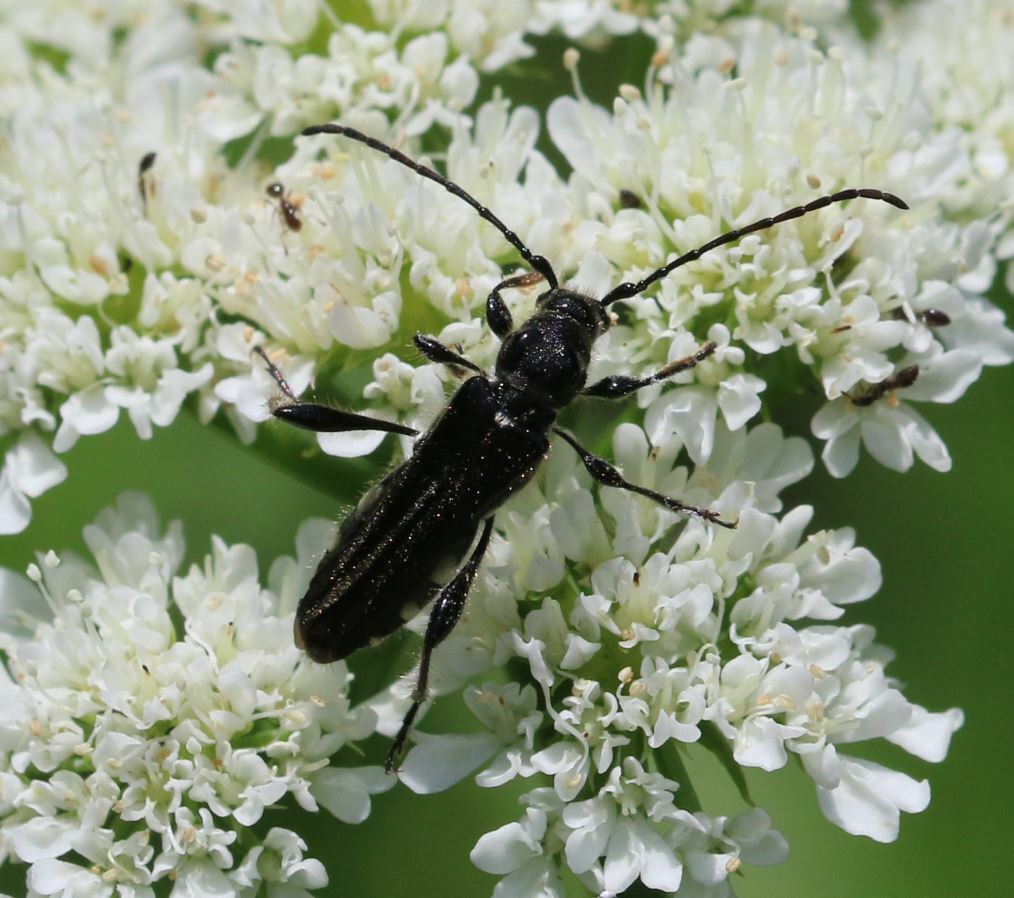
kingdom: Animalia
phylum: Arthropoda
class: Insecta
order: Coleoptera
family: Cerambycidae
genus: Stenopterus
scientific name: Stenopterus ater
